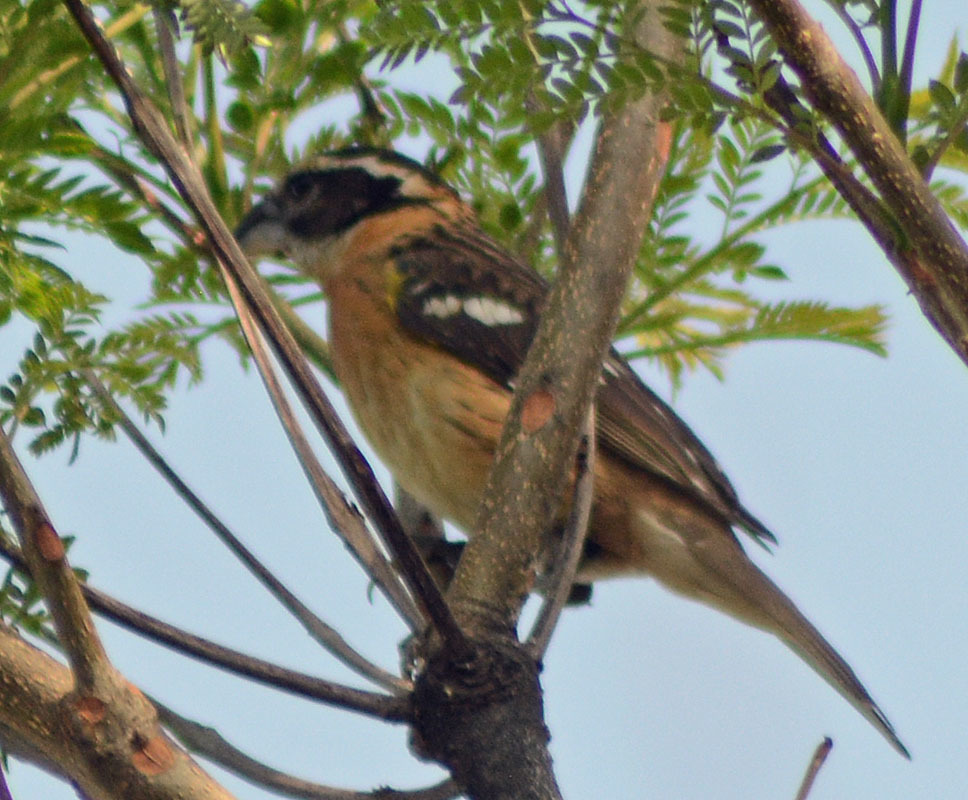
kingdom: Animalia
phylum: Chordata
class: Aves
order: Passeriformes
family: Cardinalidae
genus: Pheucticus
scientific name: Pheucticus melanocephalus
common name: Black-headed grosbeak
